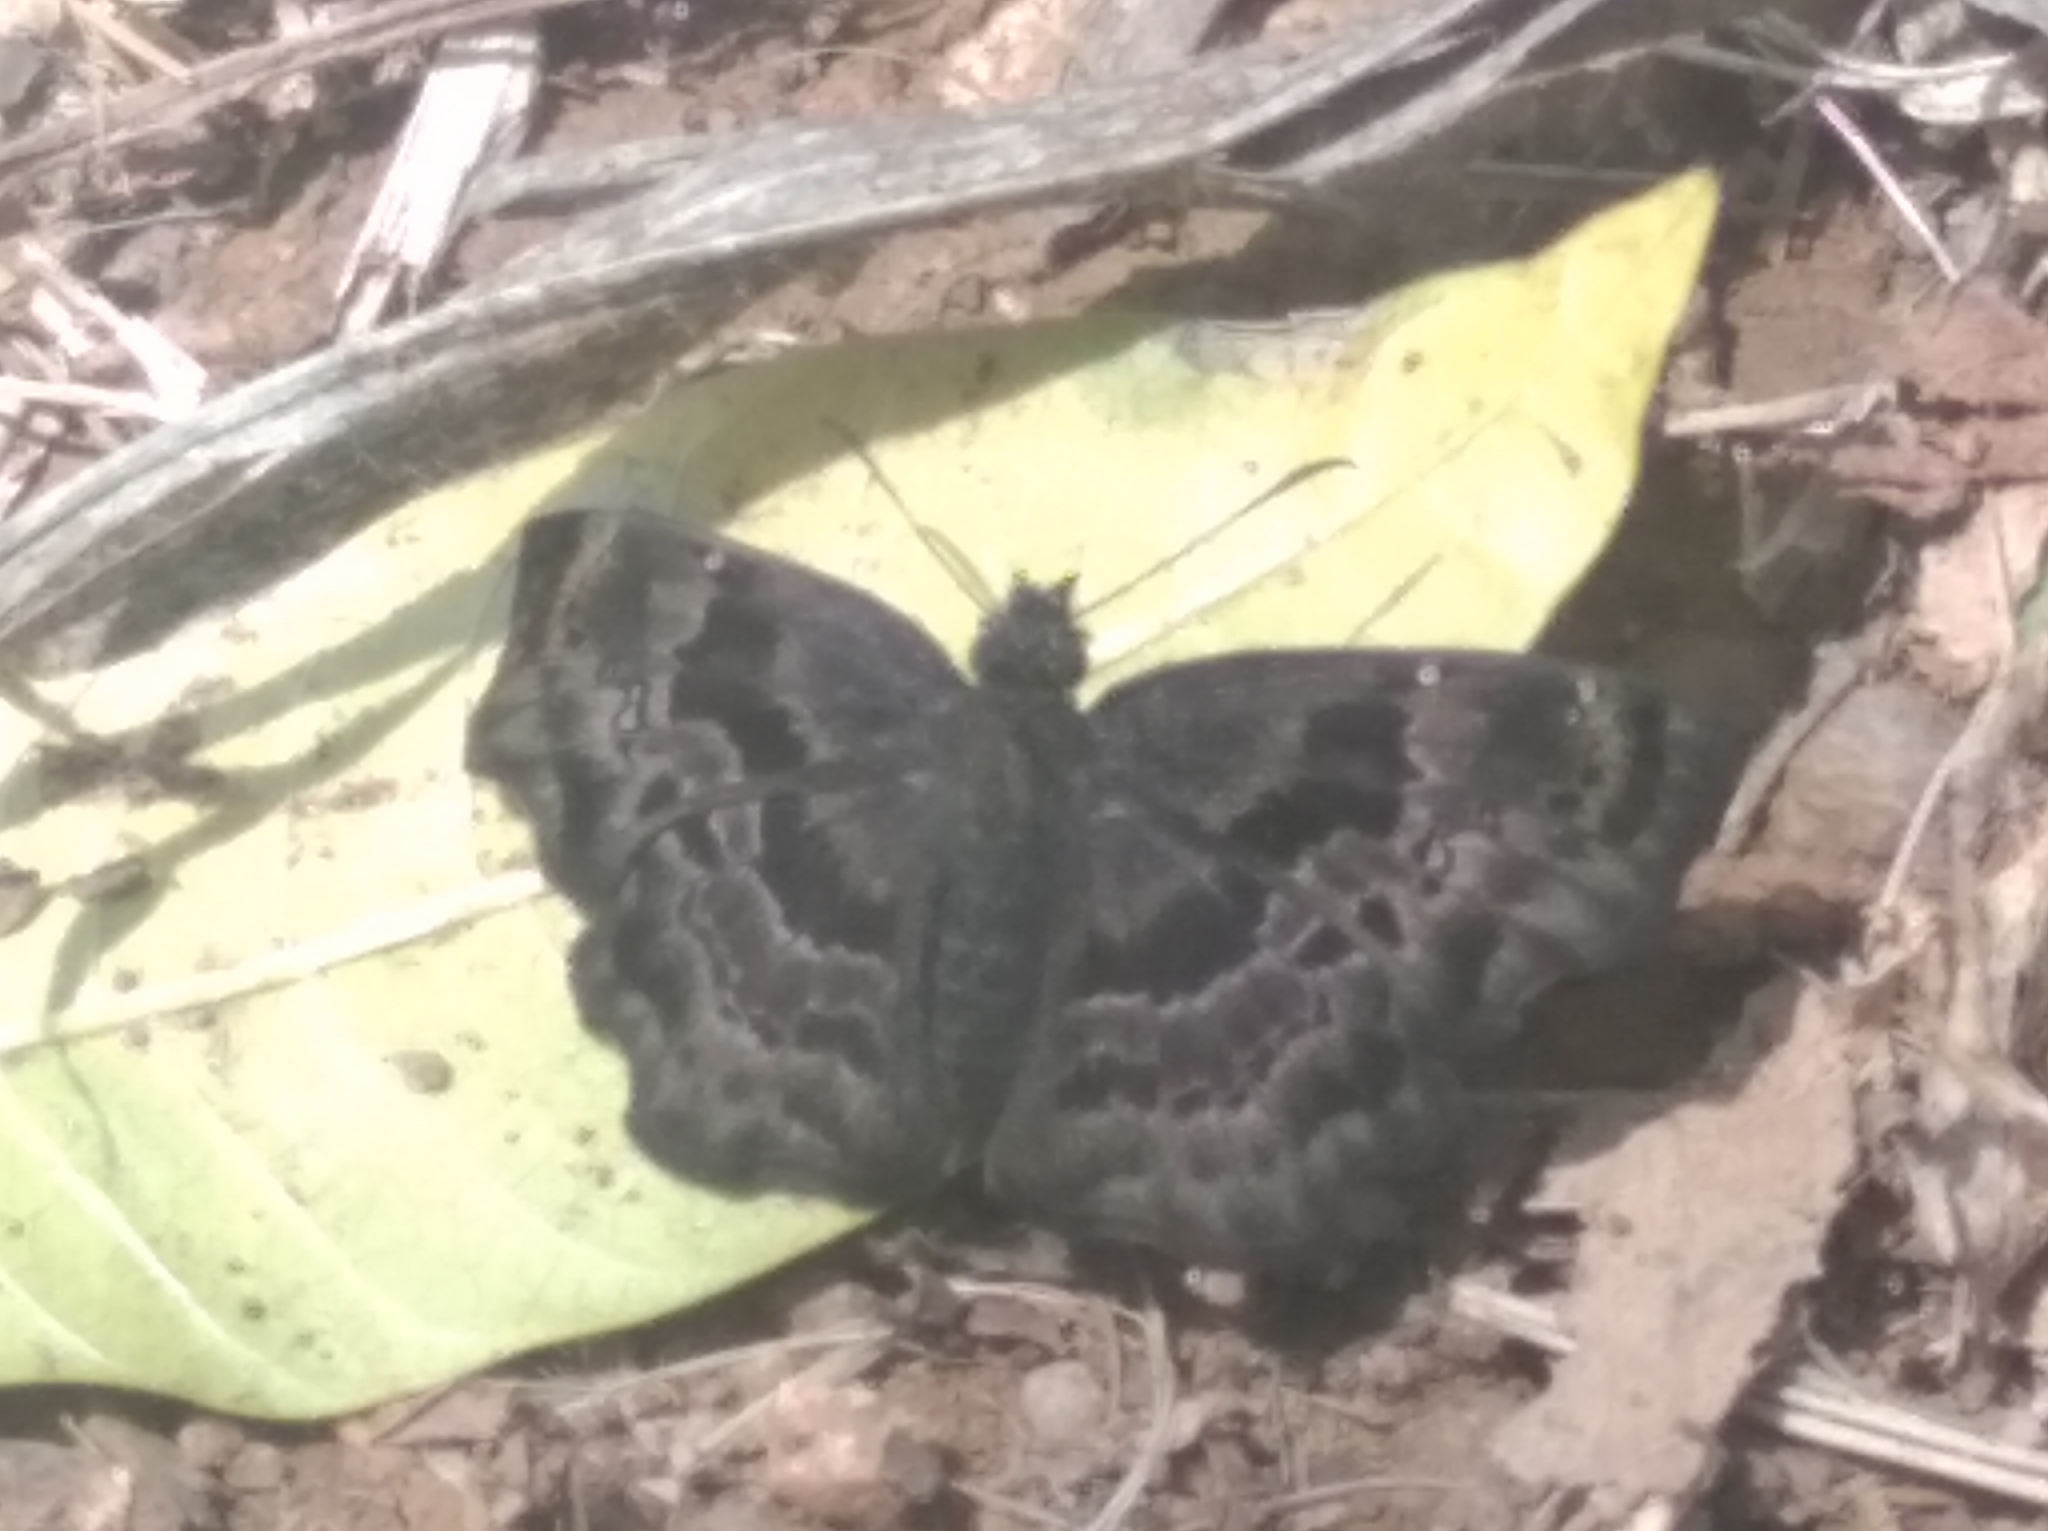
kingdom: Animalia
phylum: Arthropoda
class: Insecta
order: Lepidoptera
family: Hesperiidae
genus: Antigonus
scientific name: Antigonus liborius
